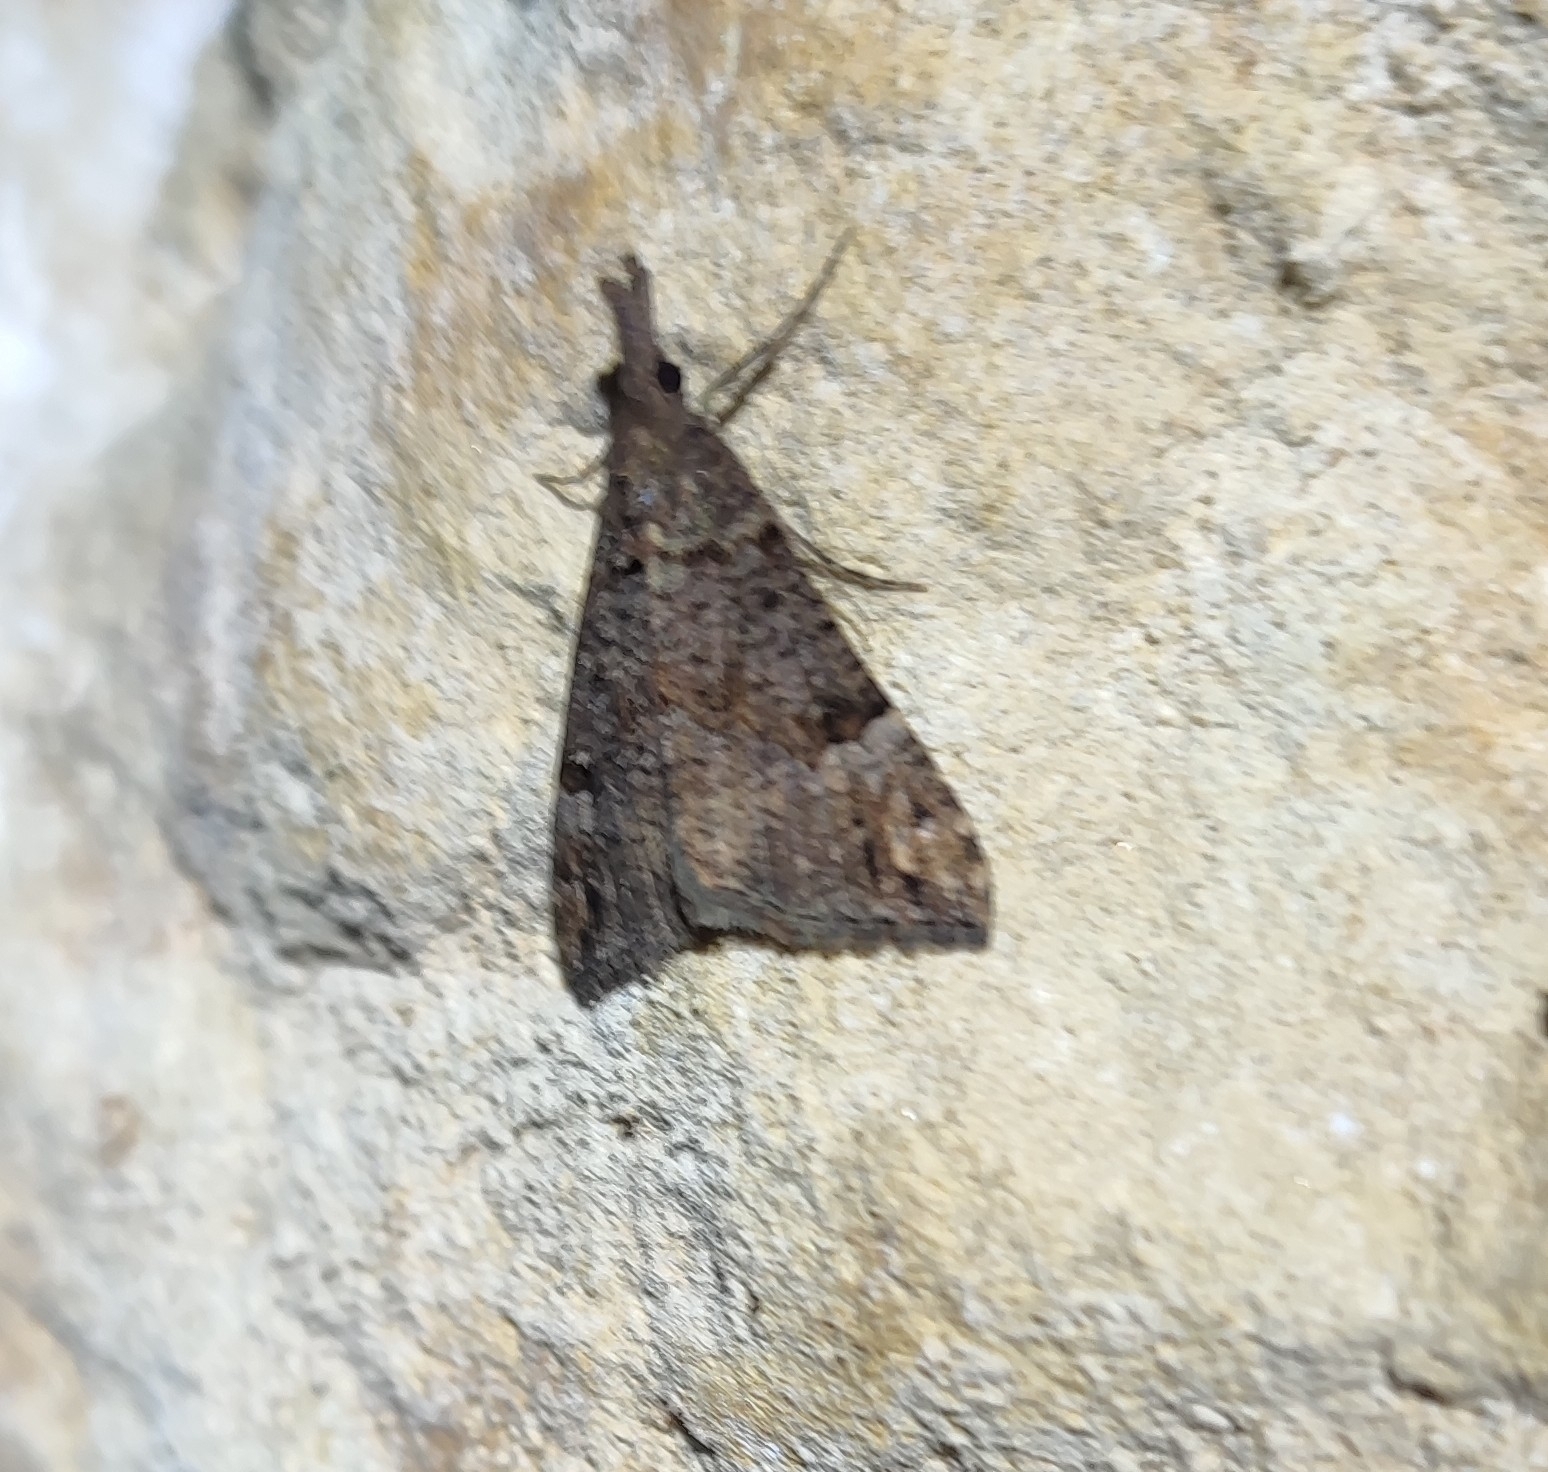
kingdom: Animalia
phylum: Arthropoda
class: Insecta
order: Lepidoptera
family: Erebidae
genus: Hypena
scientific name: Hypena obsitalis
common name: Bloxworth snout
